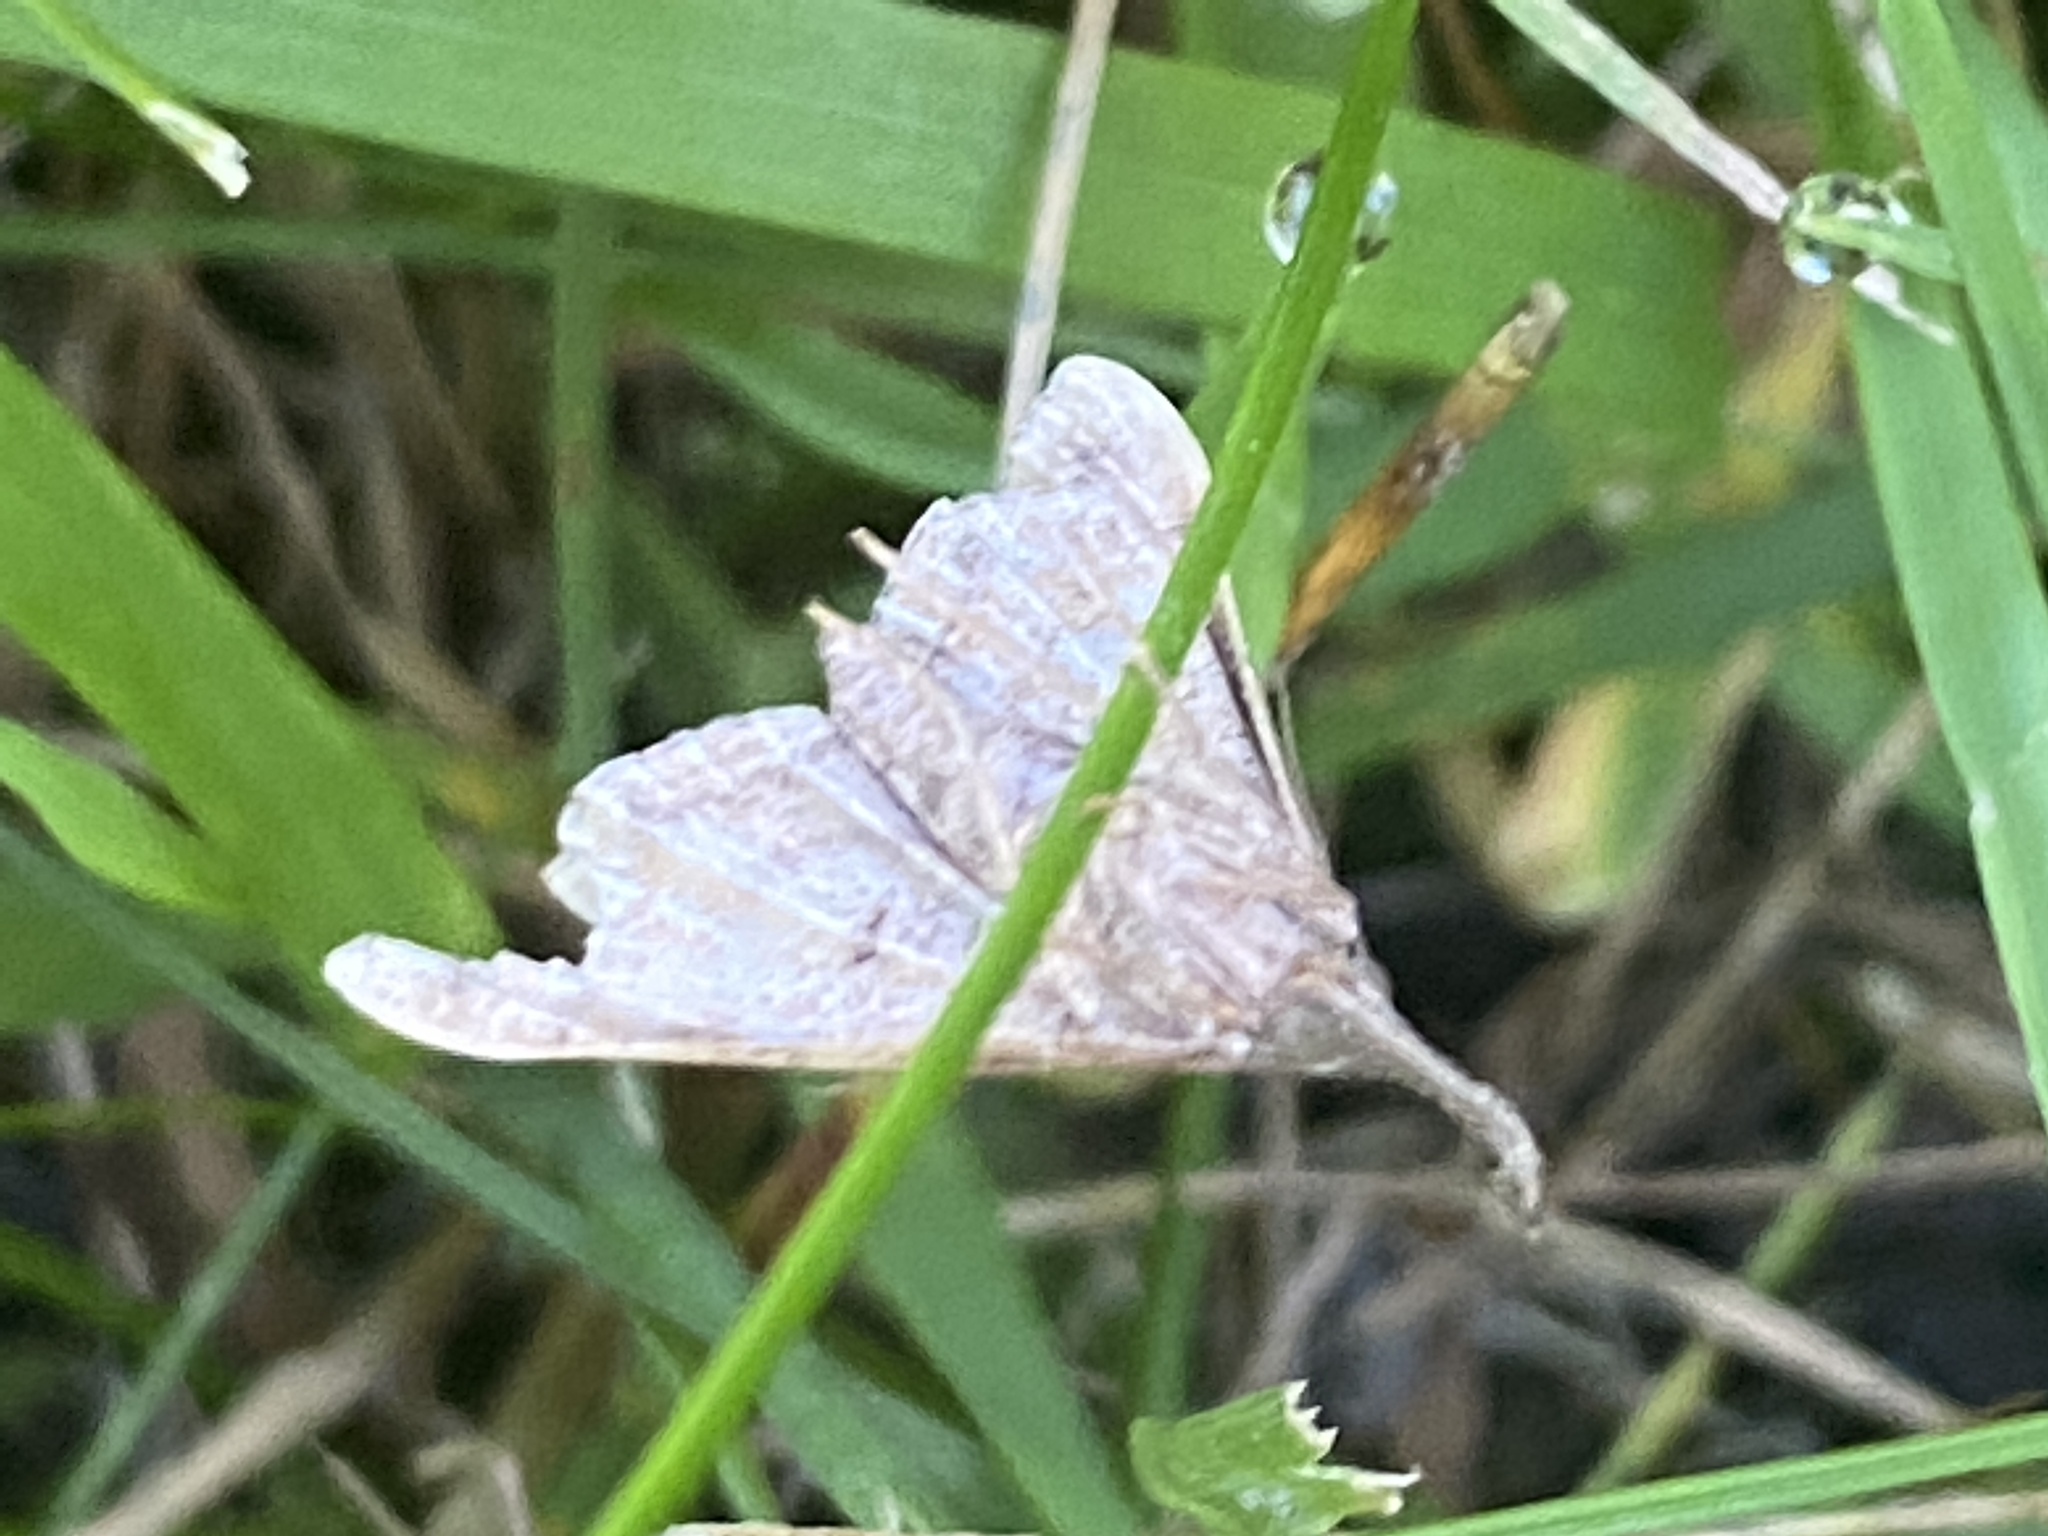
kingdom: Animalia
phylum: Arthropoda
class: Insecta
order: Lepidoptera
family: Erebidae
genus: Palthis
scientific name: Palthis angulalis
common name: Dark-spotted palthis moth
